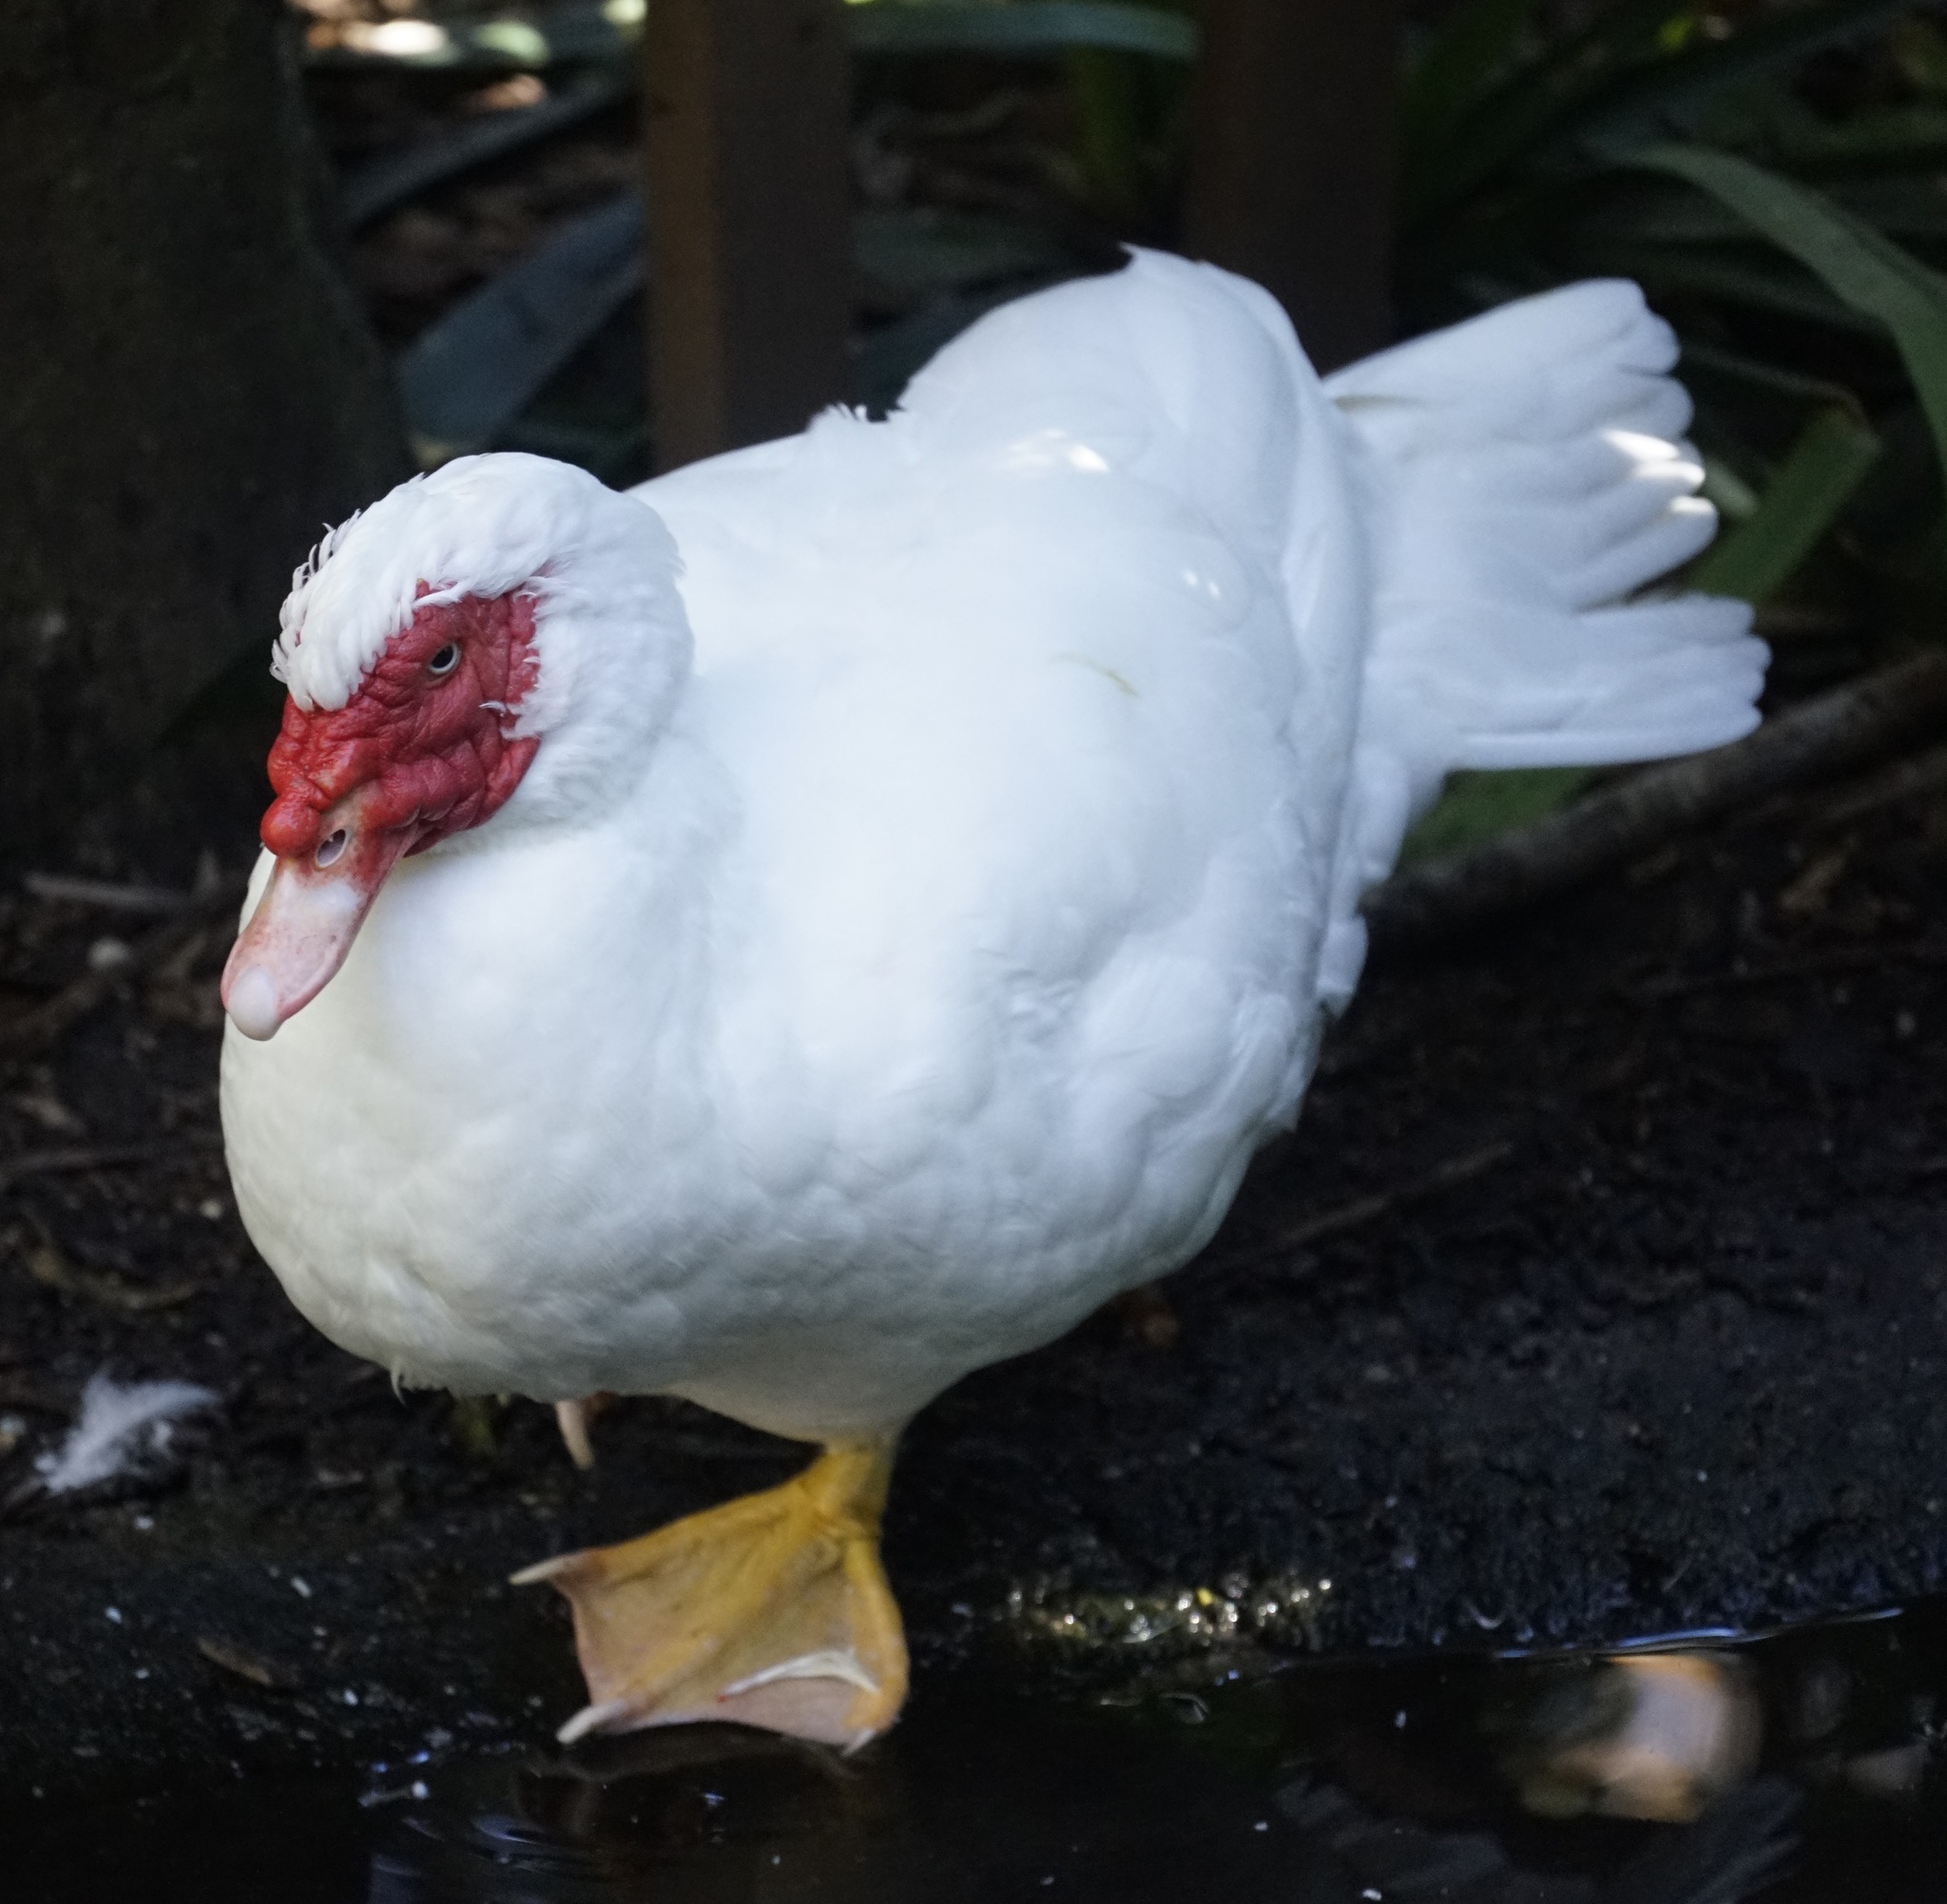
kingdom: Animalia
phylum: Chordata
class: Aves
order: Anseriformes
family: Anatidae
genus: Cairina
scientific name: Cairina moschata
